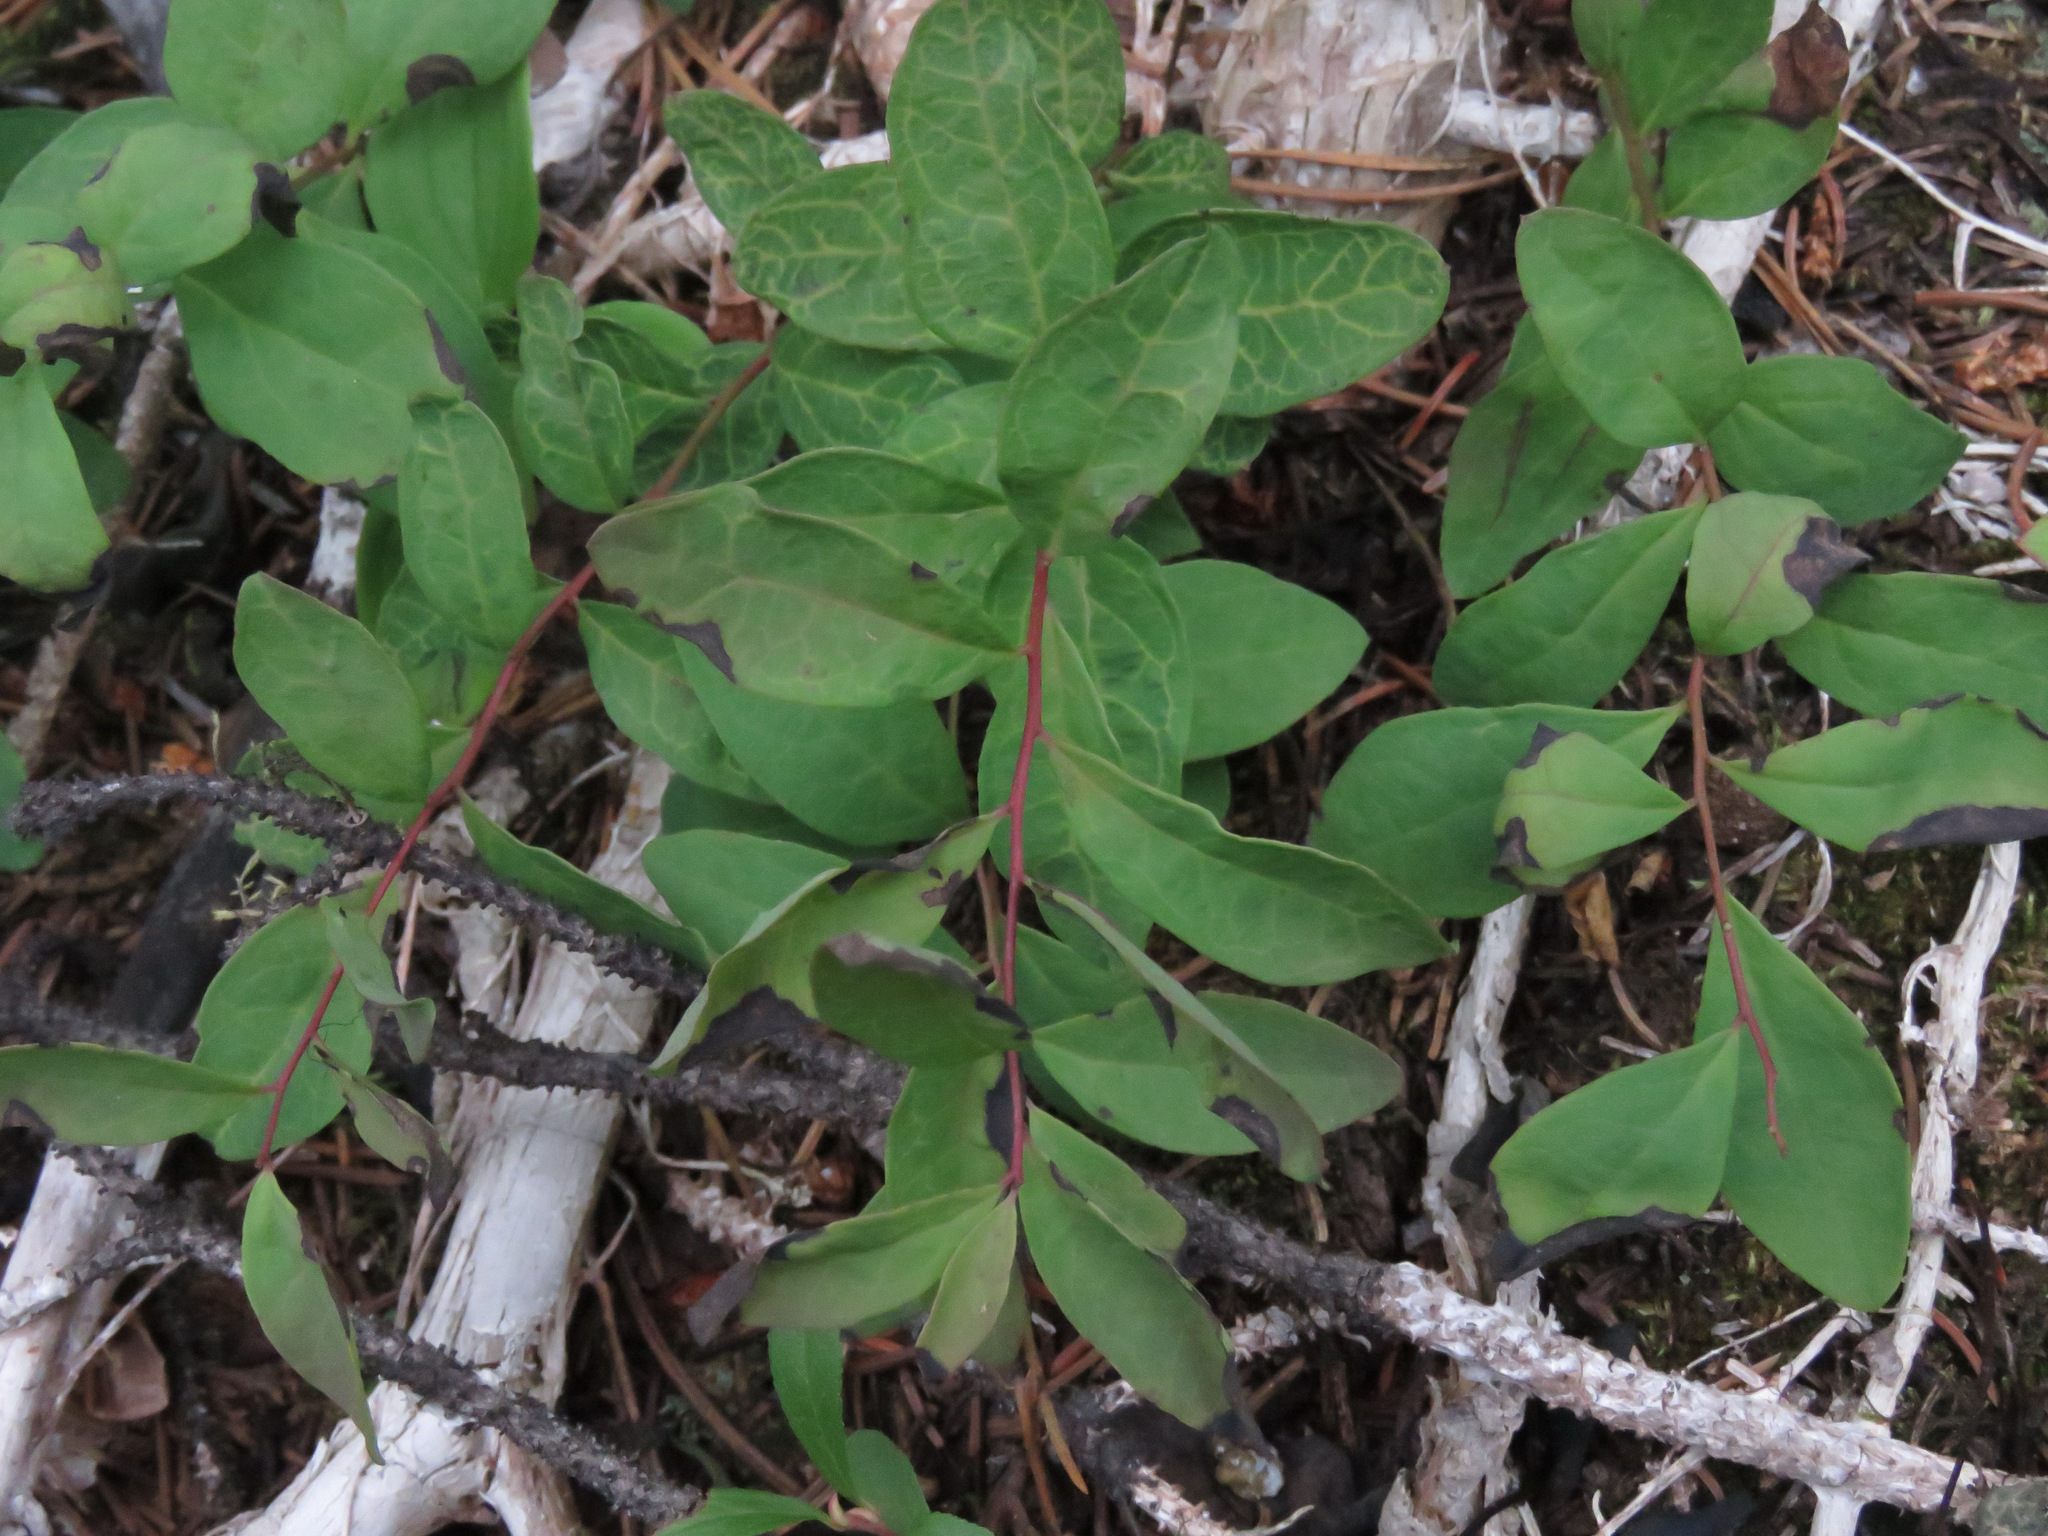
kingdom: Plantae
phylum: Tracheophyta
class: Magnoliopsida
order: Santalales
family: Comandraceae
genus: Geocaulon
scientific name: Geocaulon lividum
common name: Earthberry
